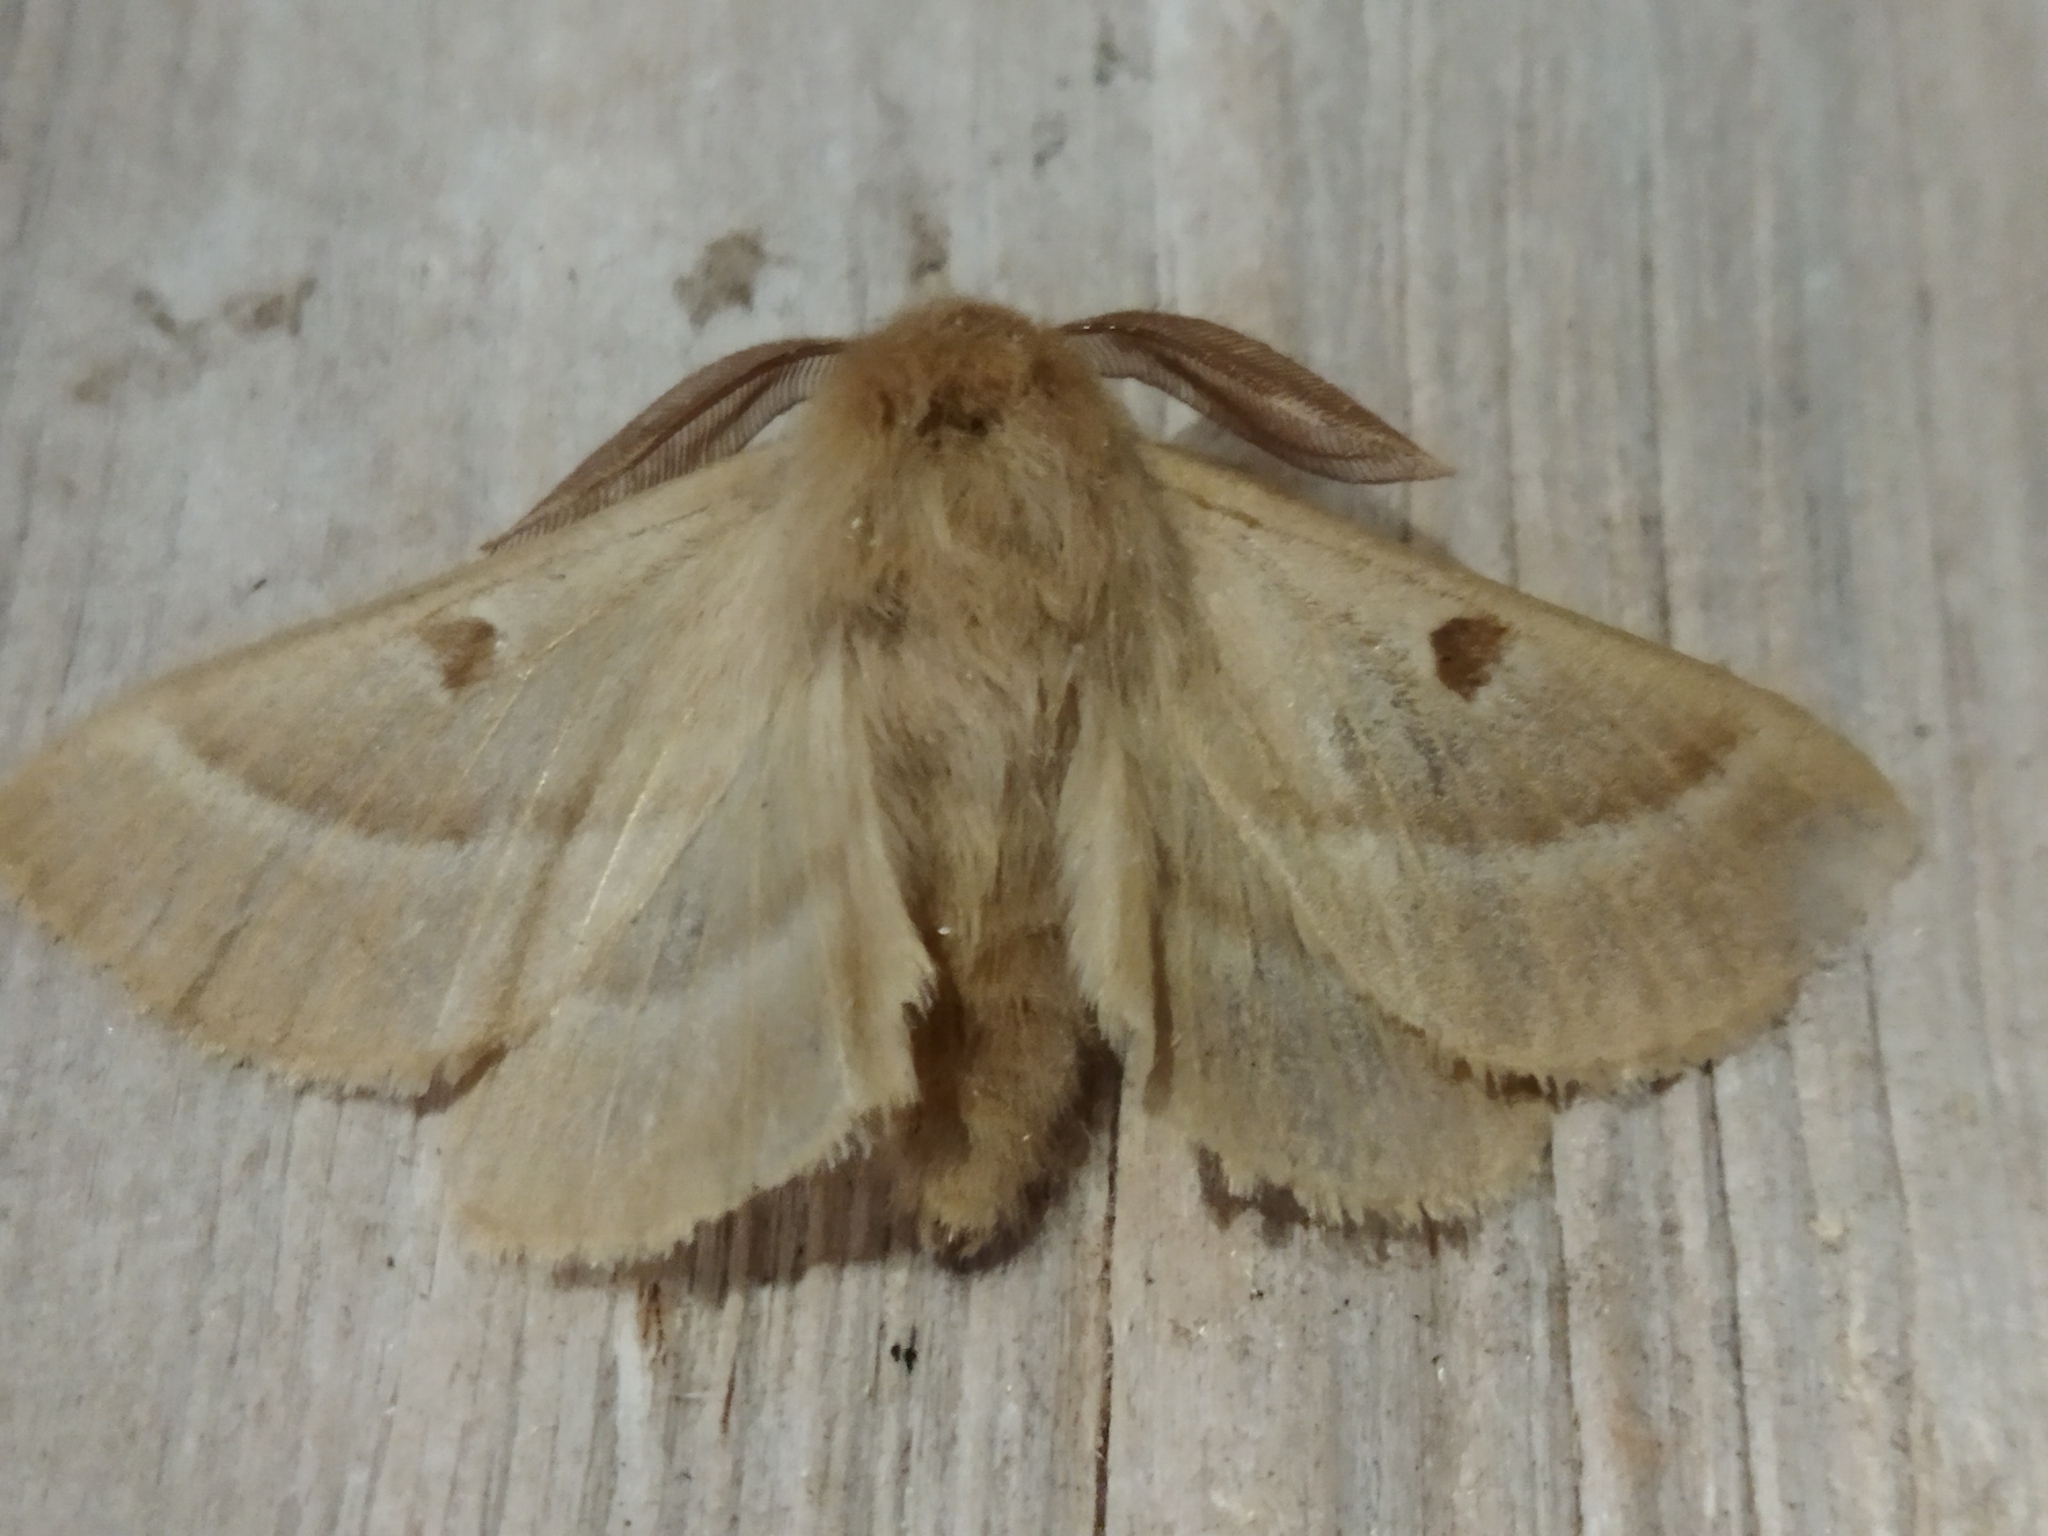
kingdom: Animalia
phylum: Arthropoda
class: Insecta
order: Lepidoptera
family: Brahmaeidae
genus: Lemonia
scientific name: Lemonia balcanica
